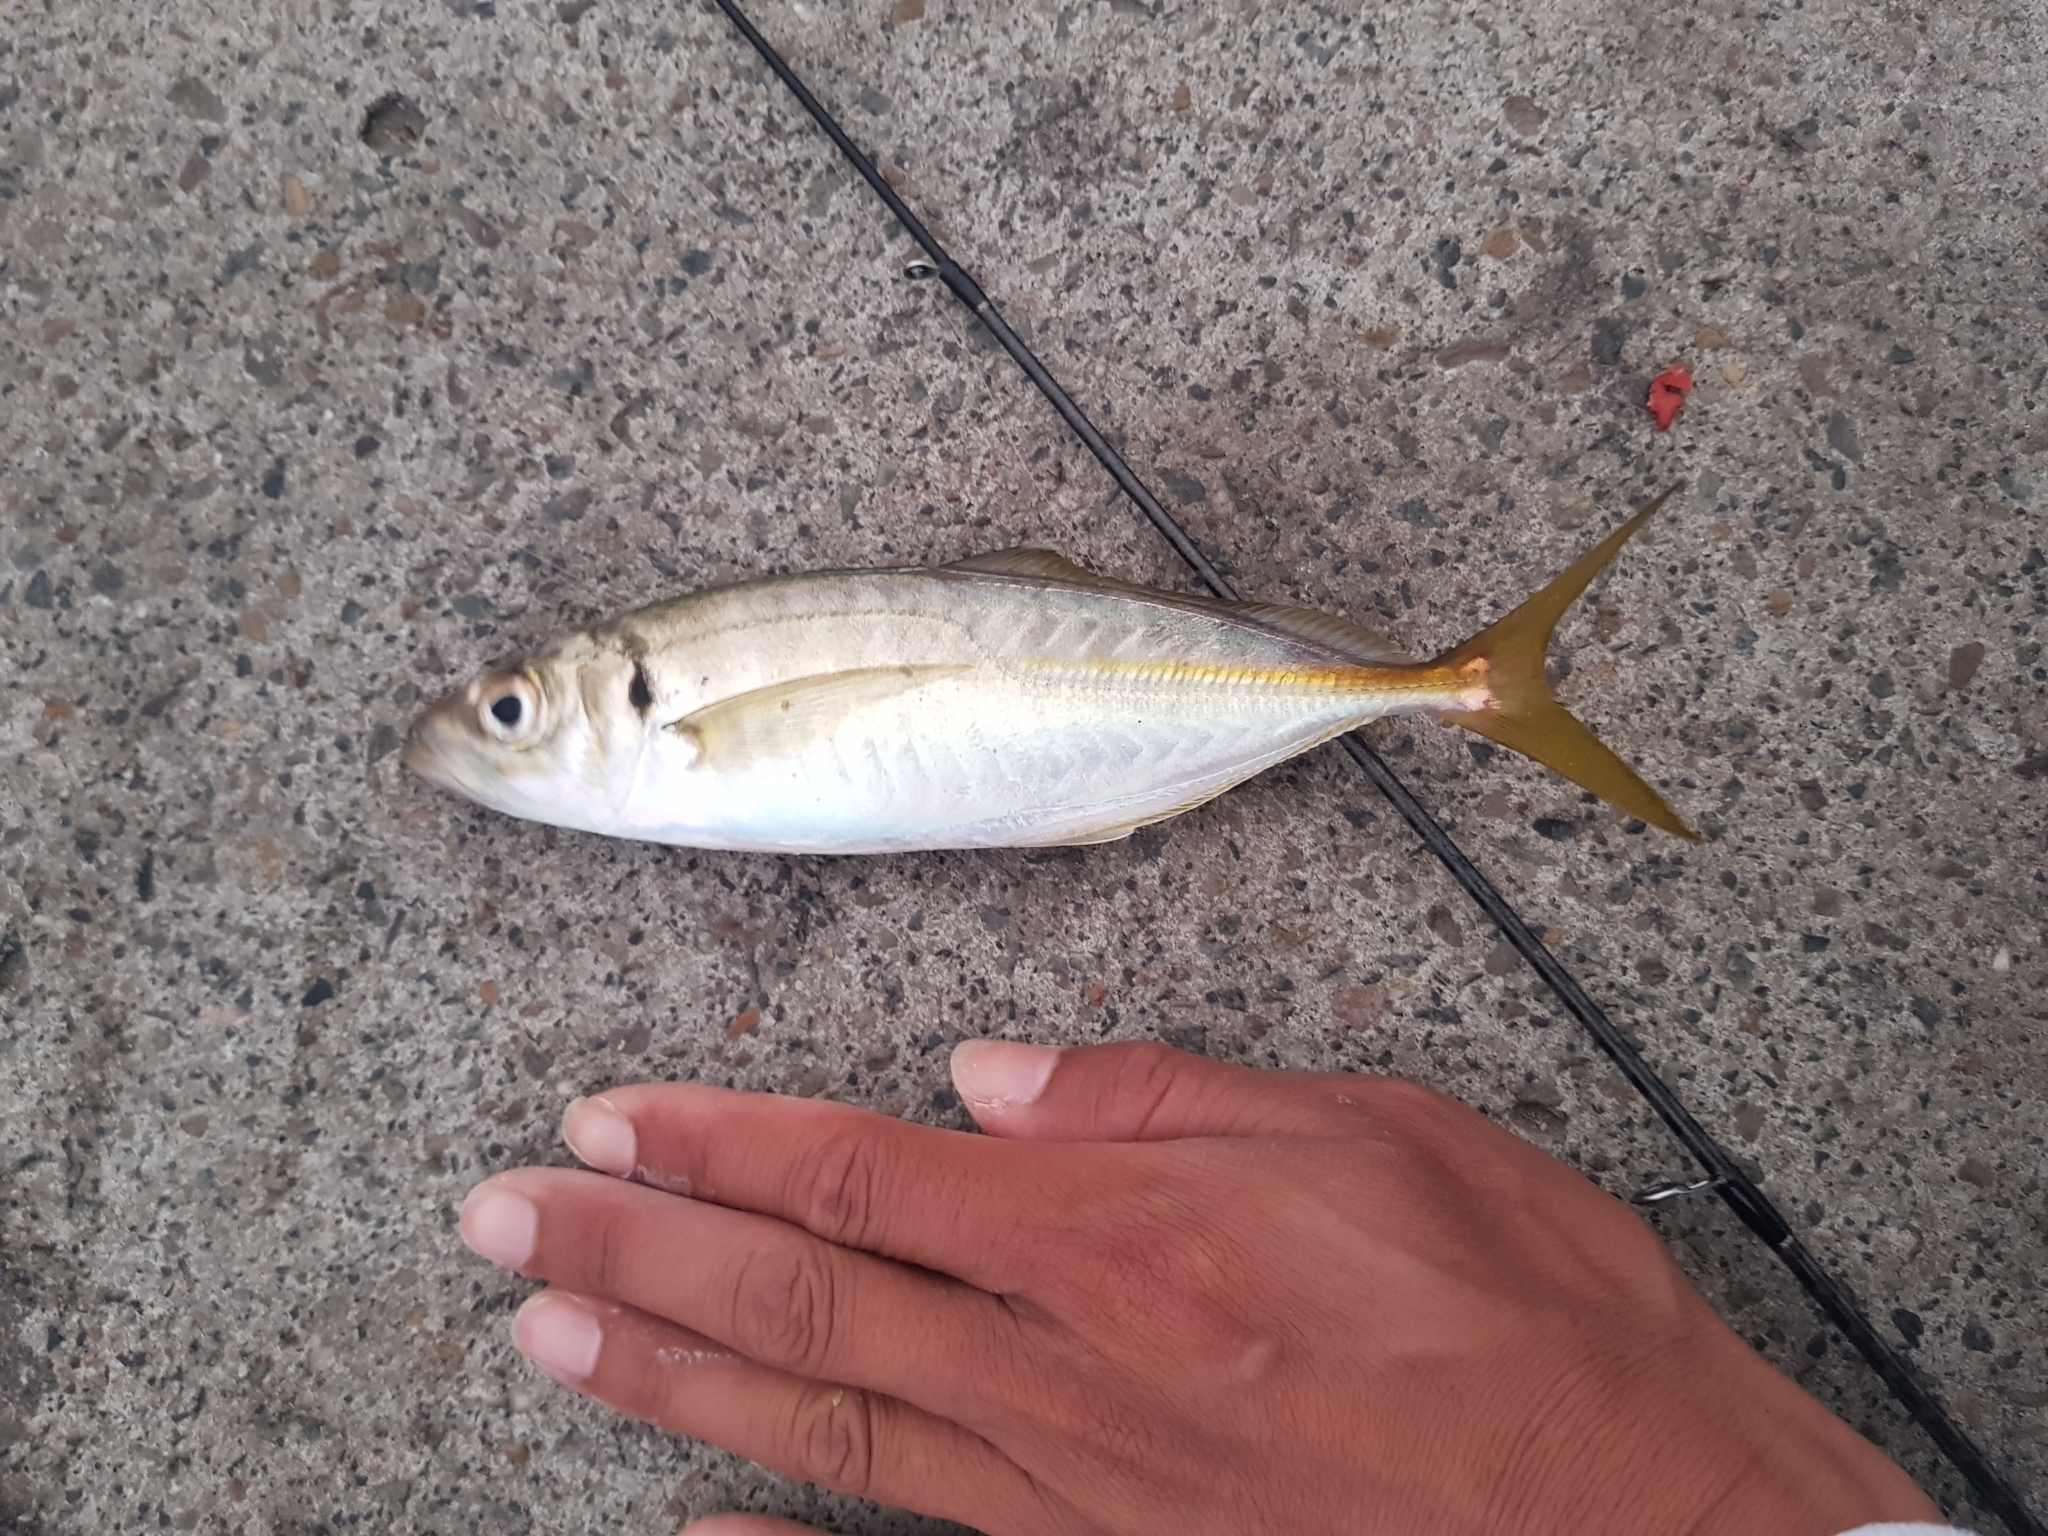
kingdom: Animalia
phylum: Chordata
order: Perciformes
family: Carangidae
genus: Trachurus
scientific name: Trachurus novaezelandiae
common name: Yellowtail horse mackerel
